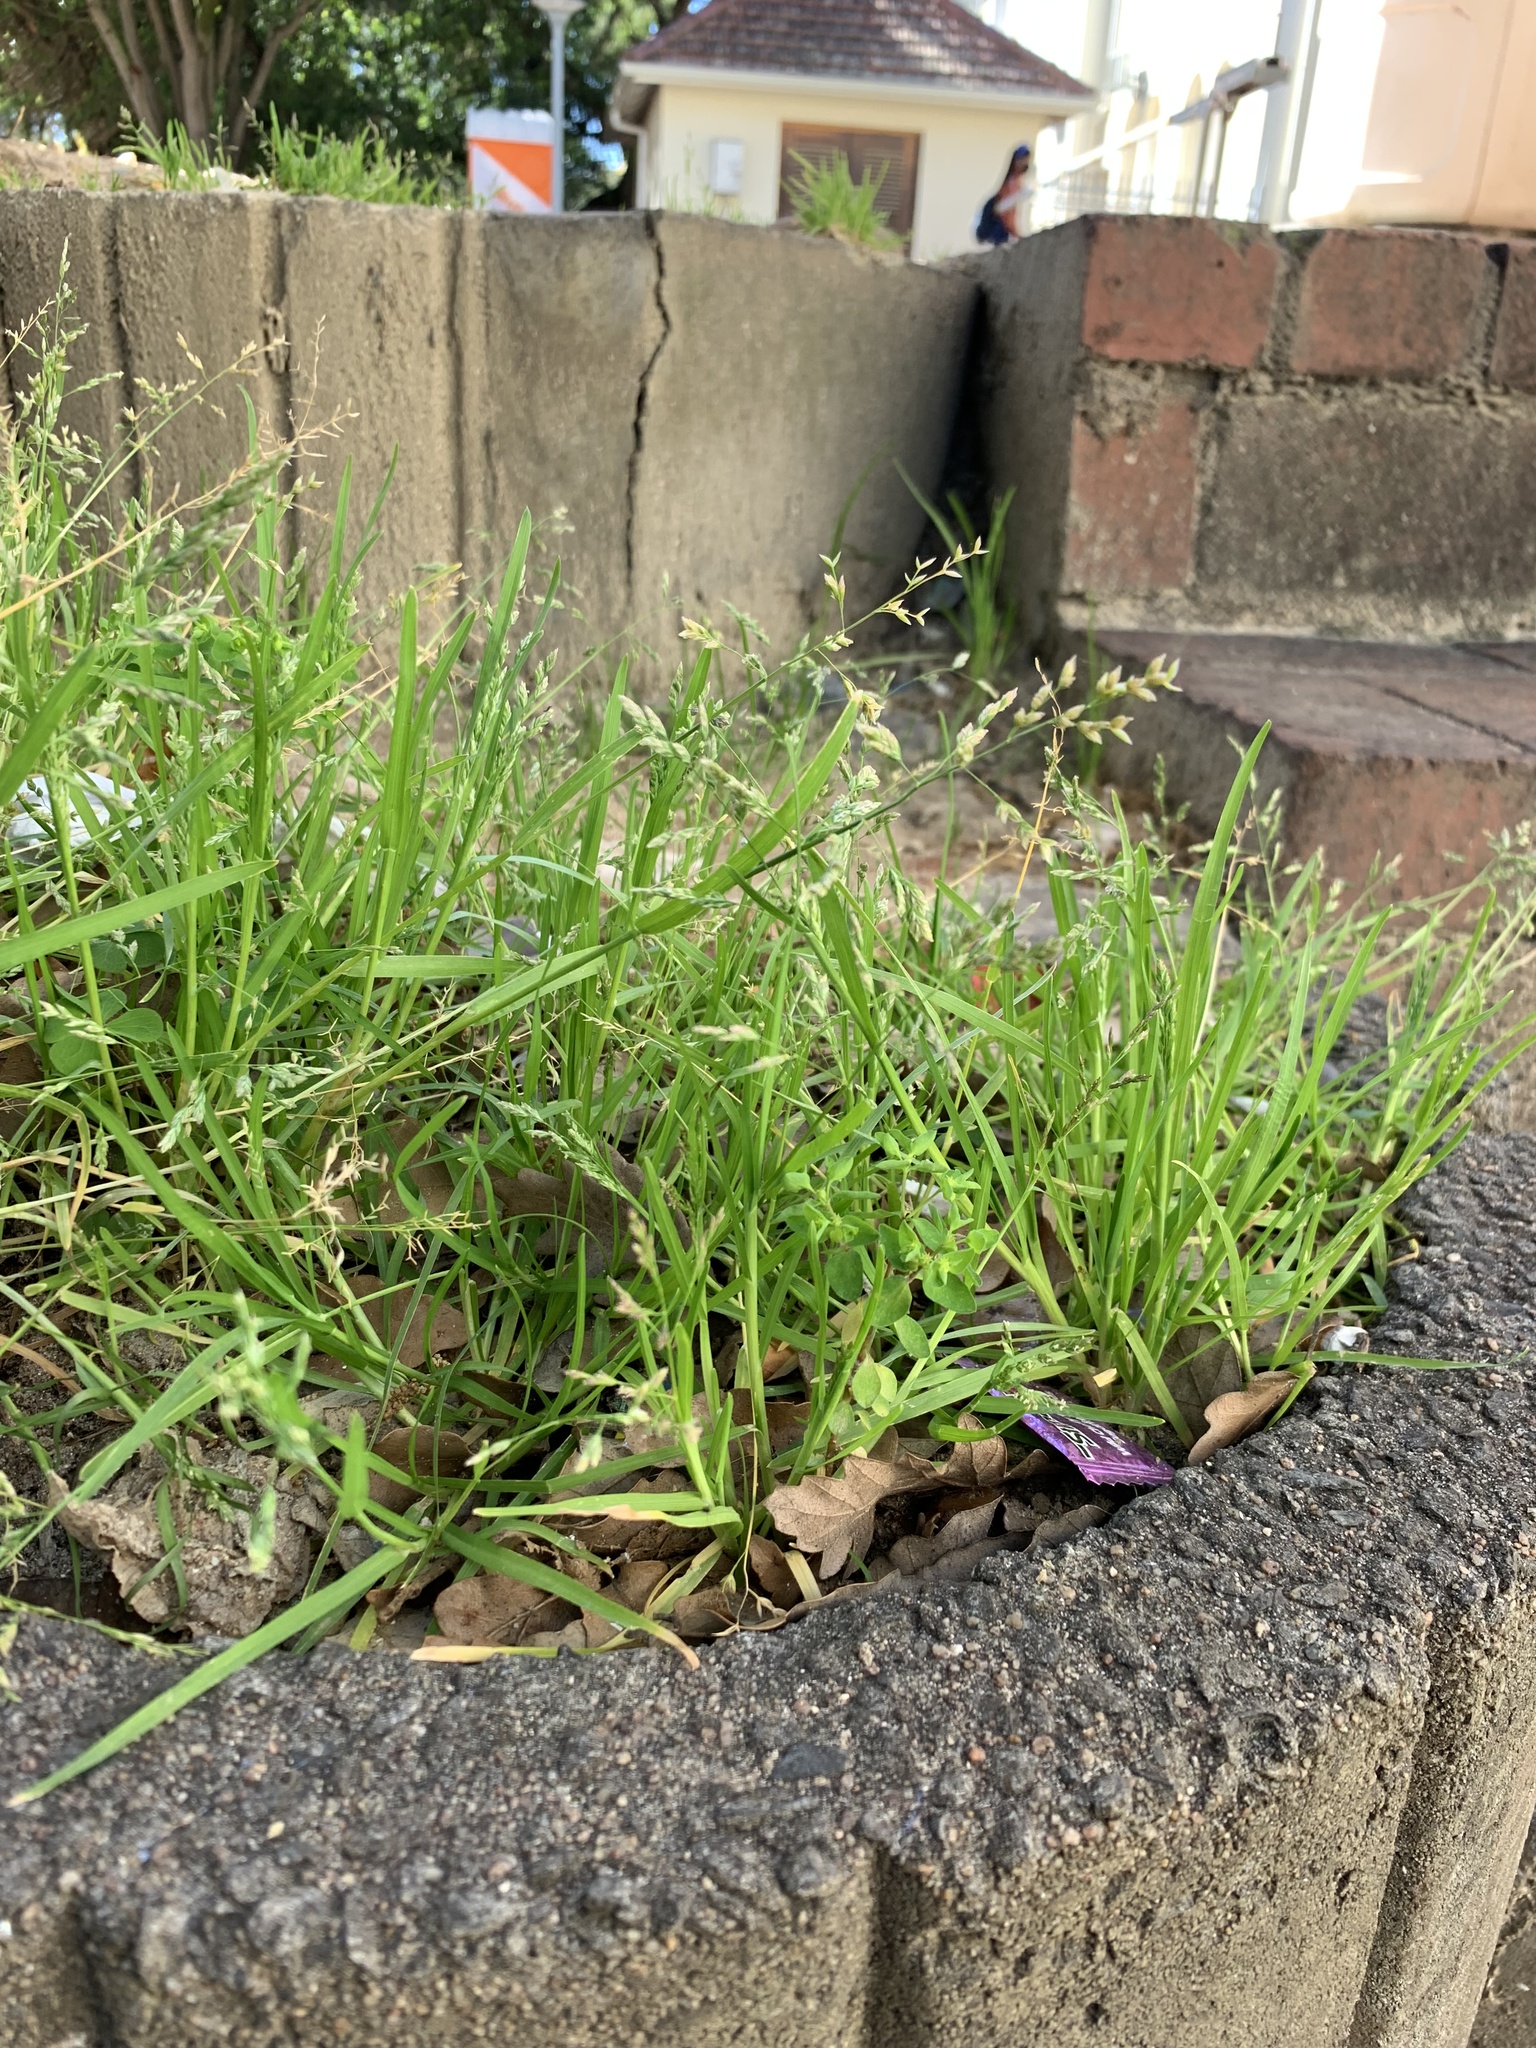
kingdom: Plantae
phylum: Tracheophyta
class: Liliopsida
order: Poales
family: Poaceae
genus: Poa
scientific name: Poa annua
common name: Annual bluegrass
